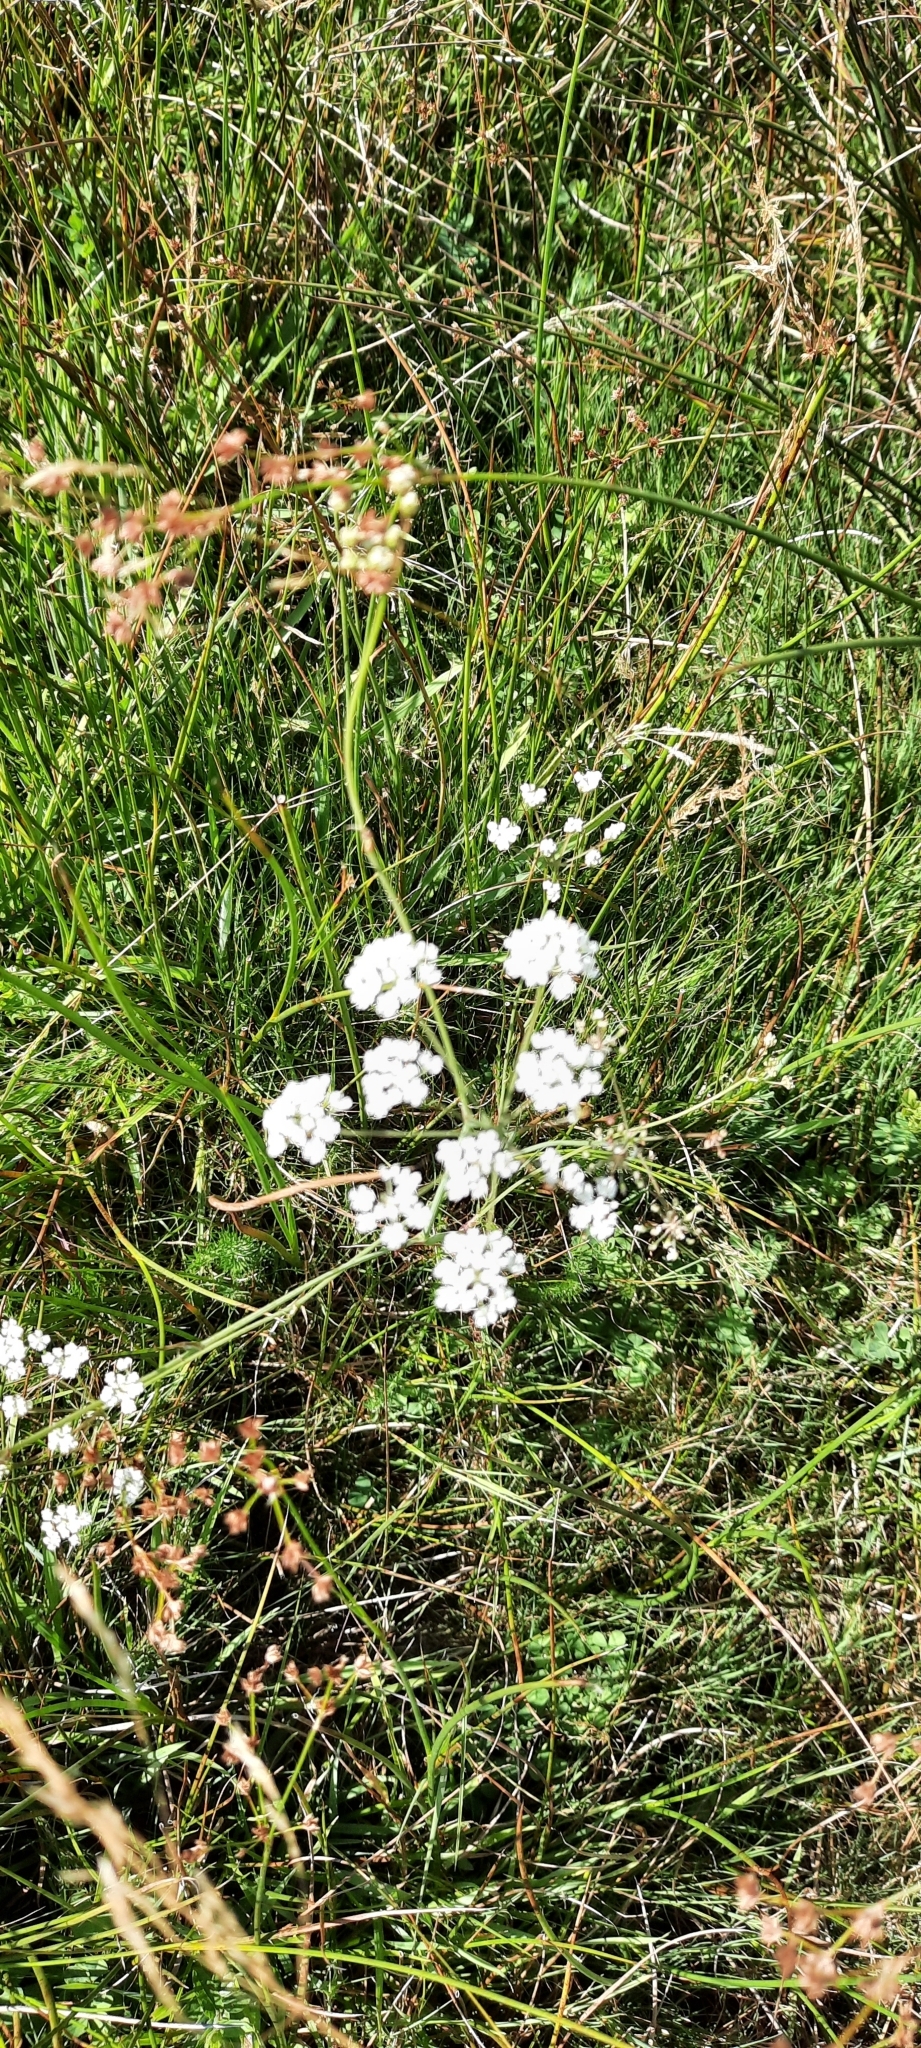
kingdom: Plantae
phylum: Tracheophyta
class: Magnoliopsida
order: Apiales
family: Apiaceae
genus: Trocdaris
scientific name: Trocdaris verticillatum
